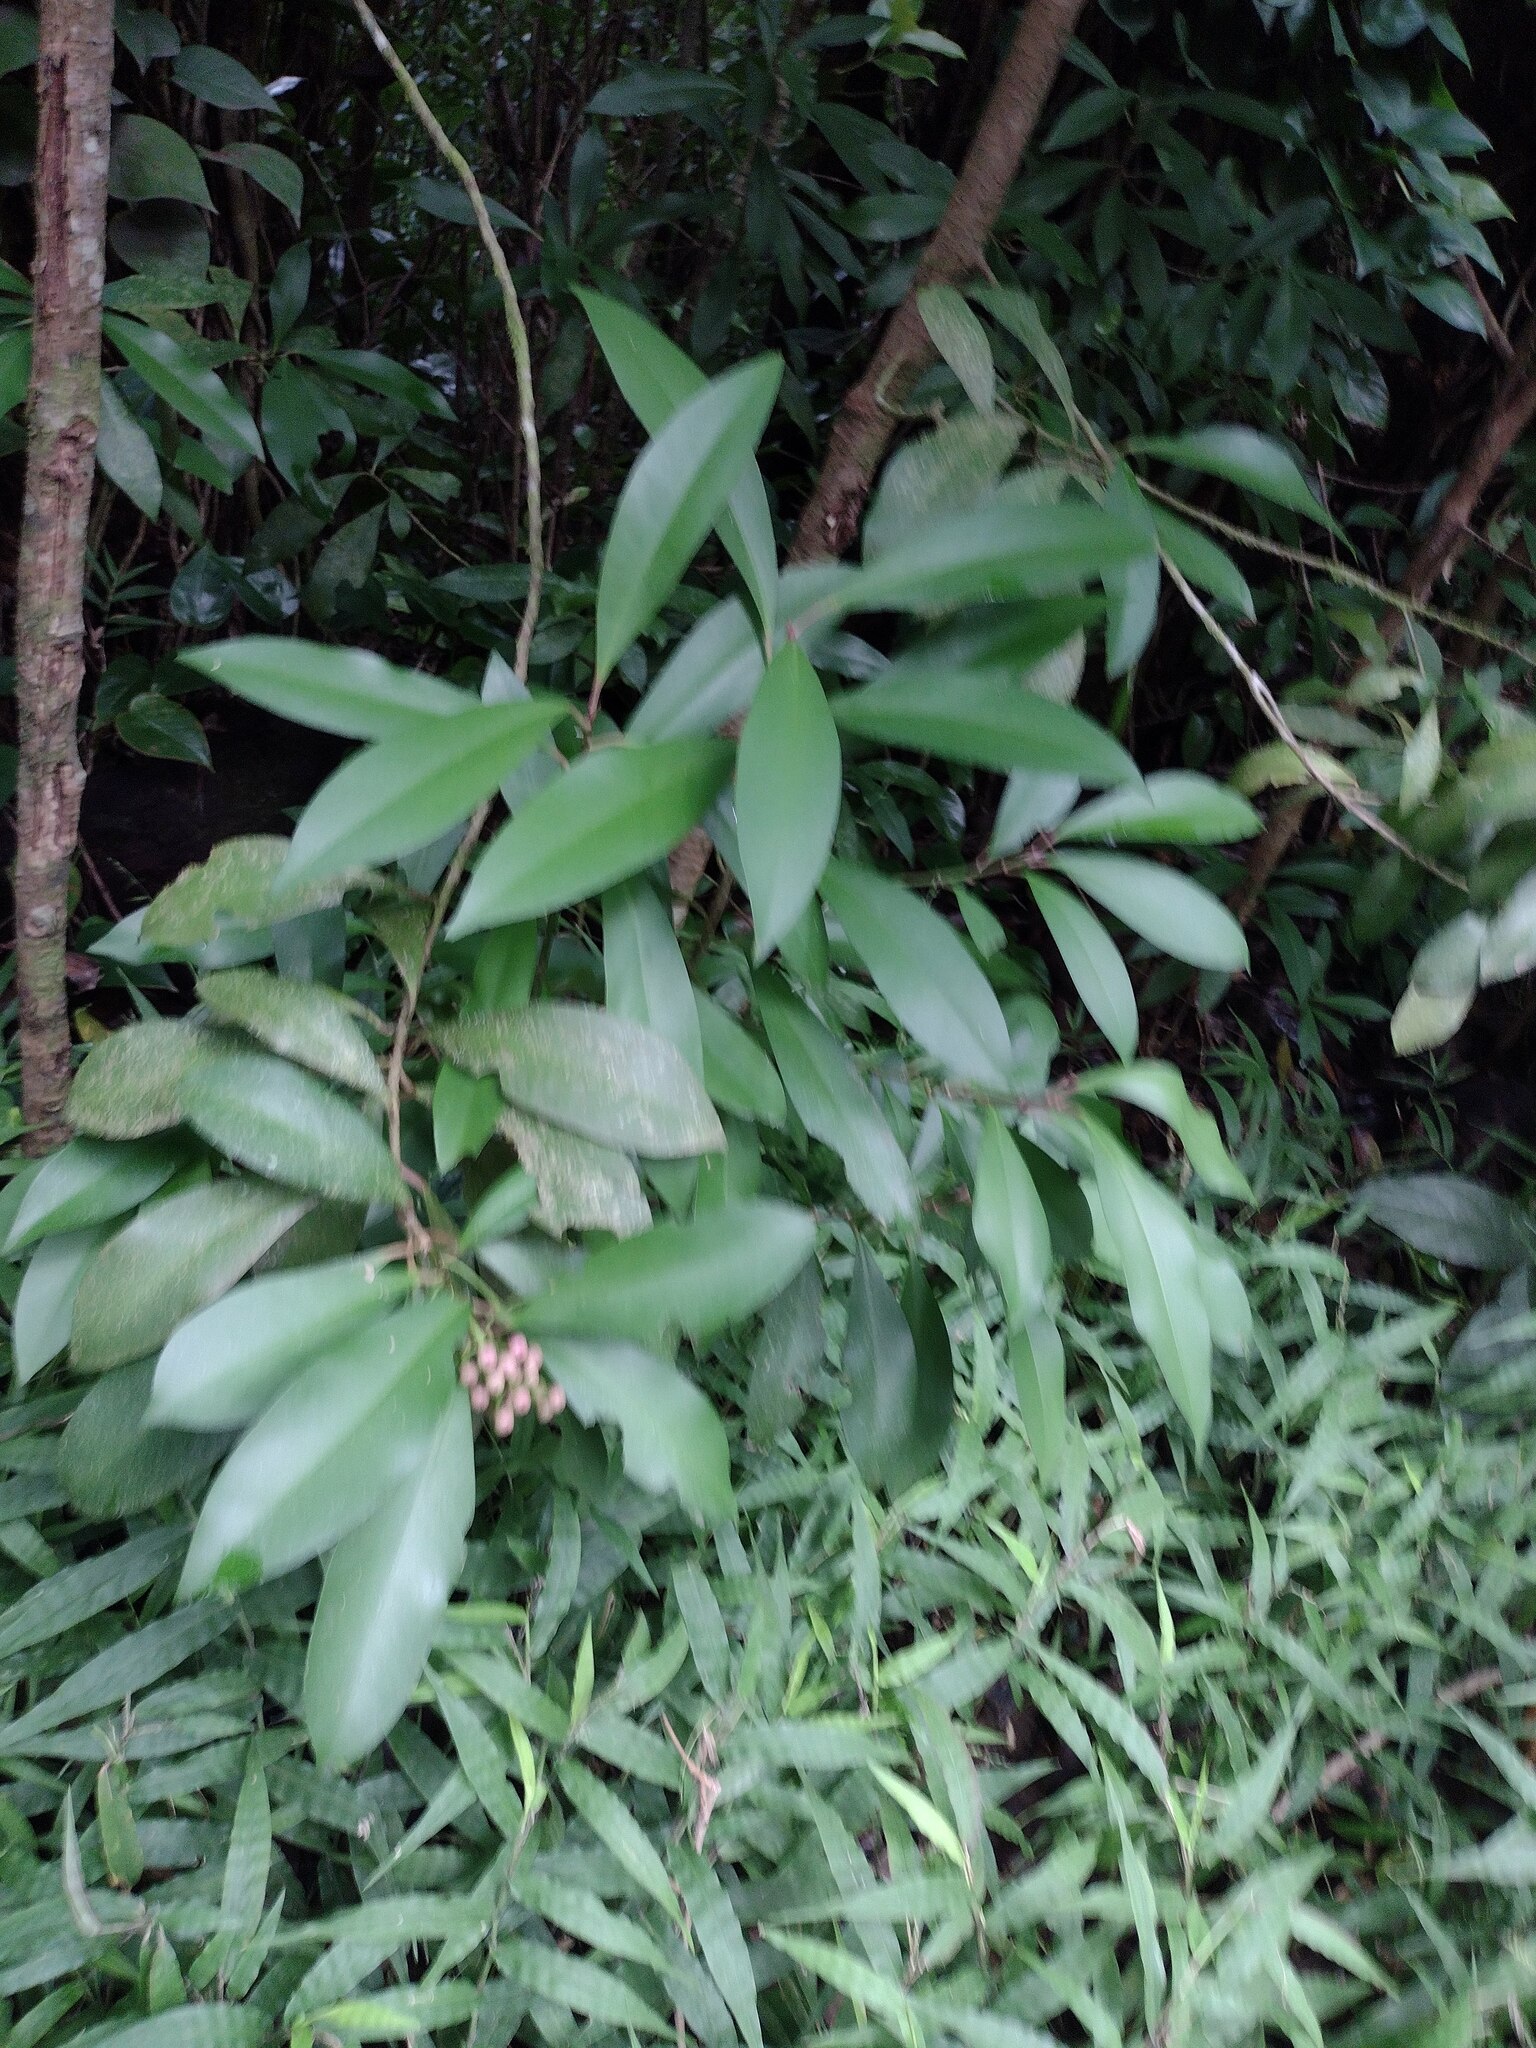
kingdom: Plantae
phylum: Tracheophyta
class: Magnoliopsida
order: Ericales
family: Primulaceae
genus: Ardisia
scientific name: Ardisia elliptica
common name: Shoebutton
